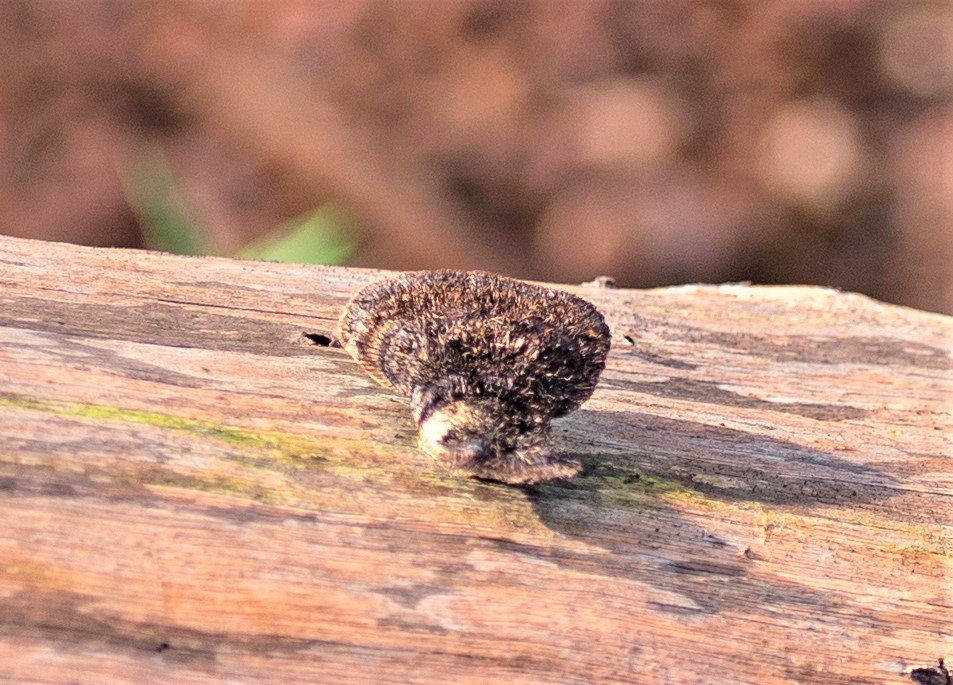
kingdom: Fungi
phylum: Basidiomycota
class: Agaricomycetes
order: Polyporales
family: Cerrenaceae
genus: Cerrena
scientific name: Cerrena hydnoides
